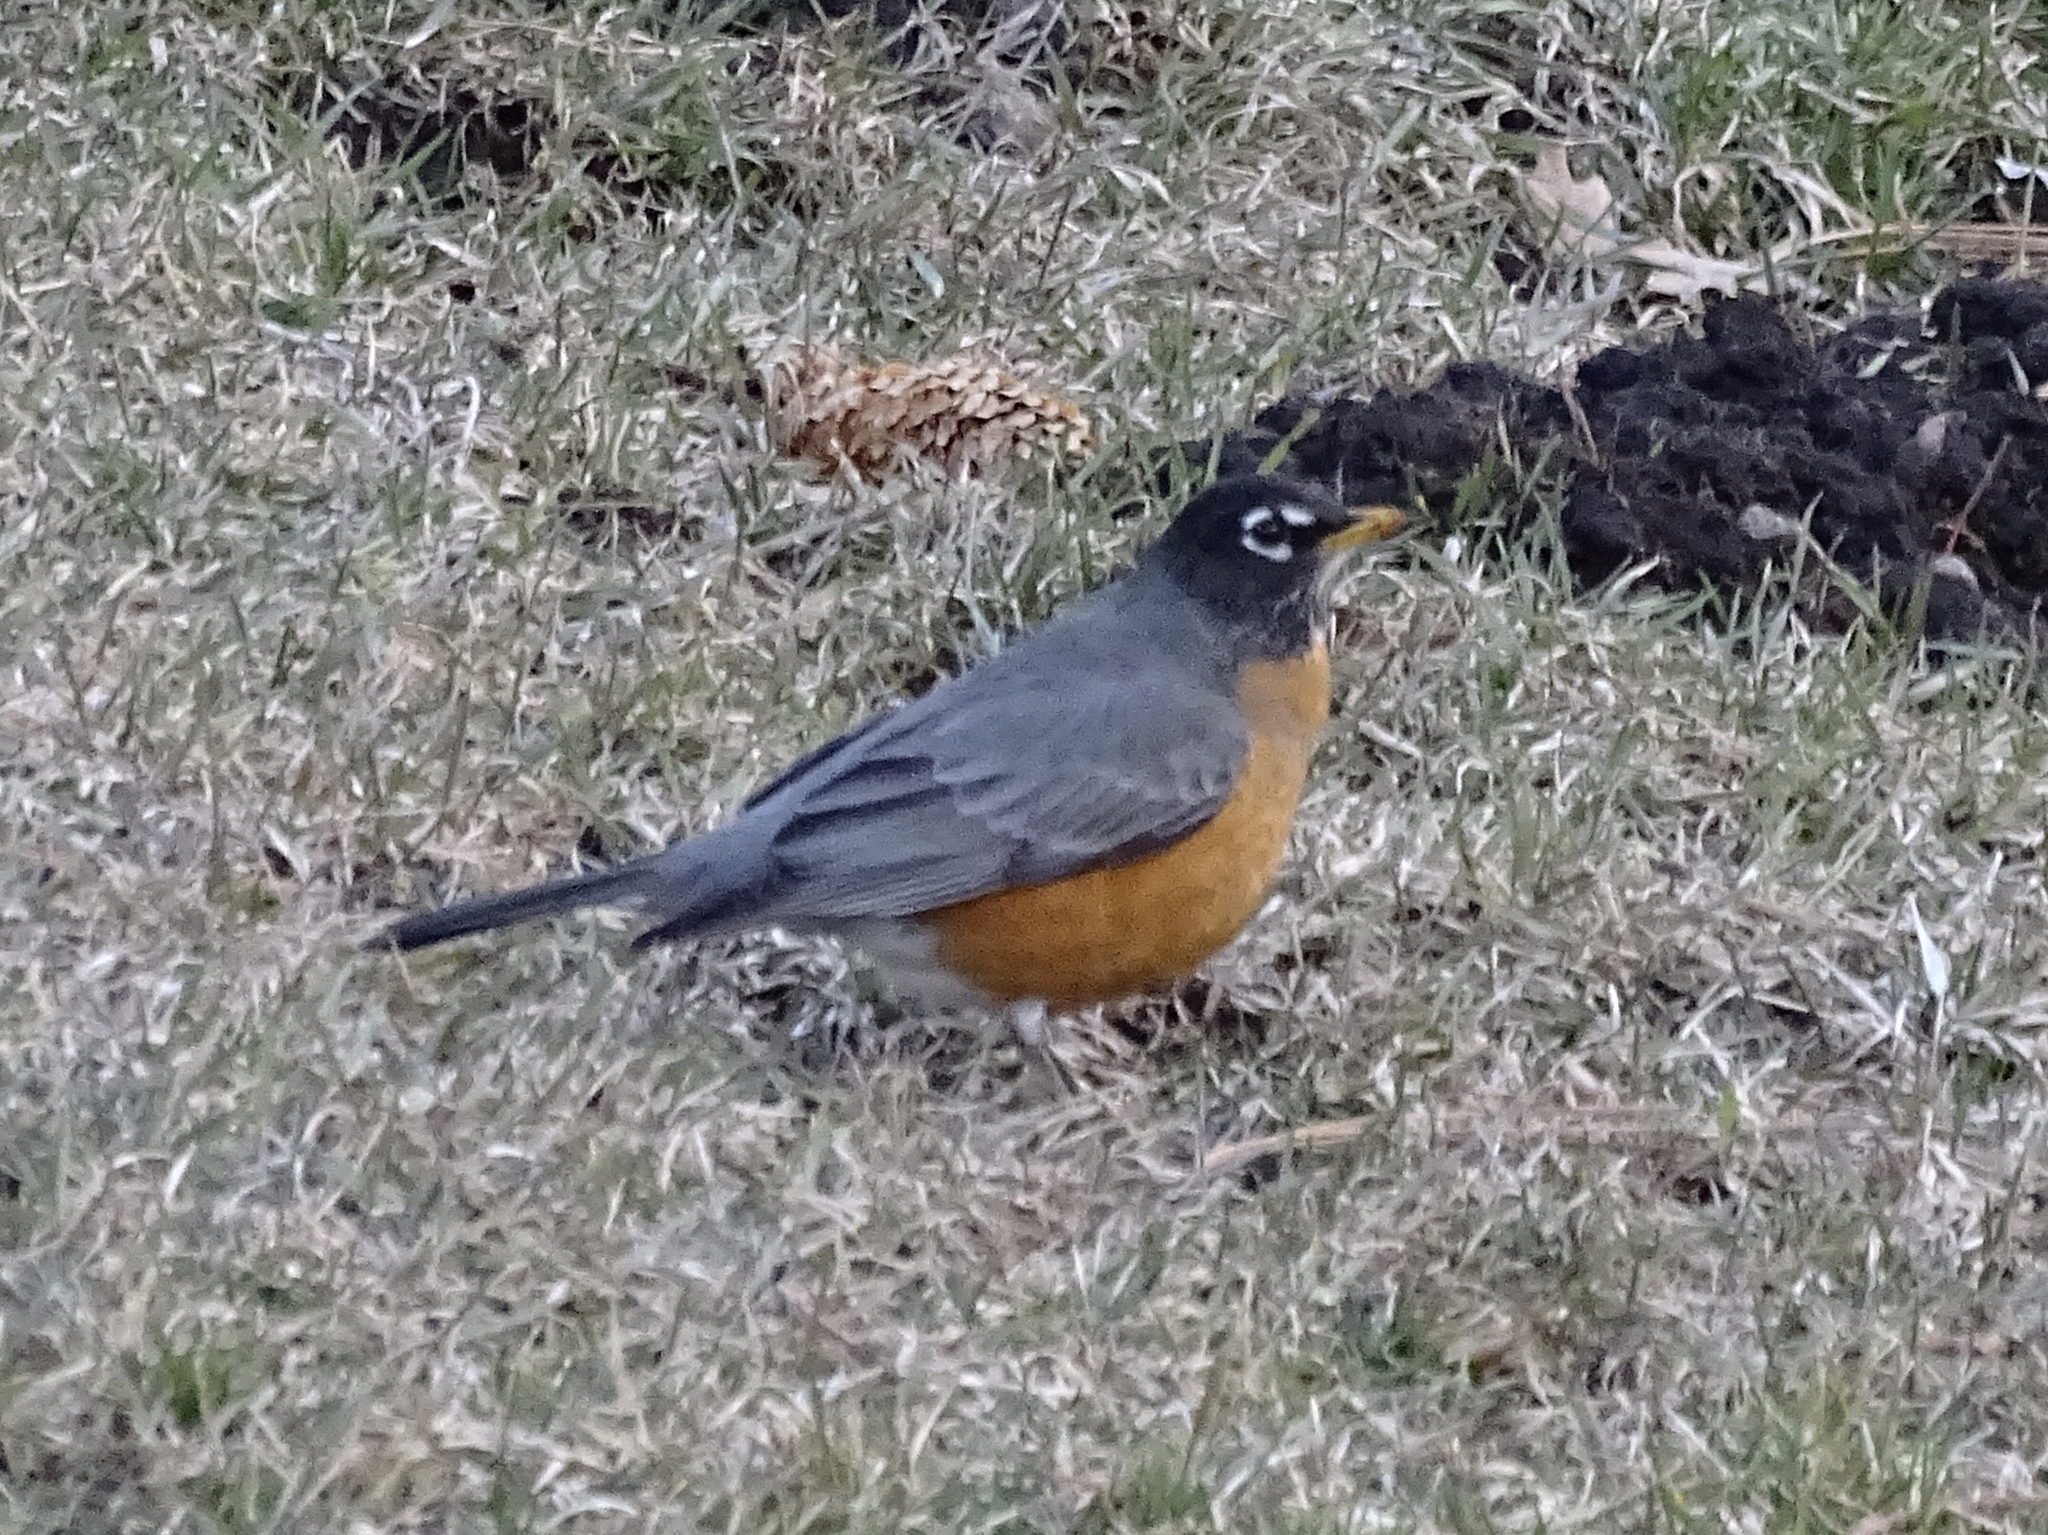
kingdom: Animalia
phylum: Chordata
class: Aves
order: Passeriformes
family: Turdidae
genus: Turdus
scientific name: Turdus migratorius
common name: American robin
